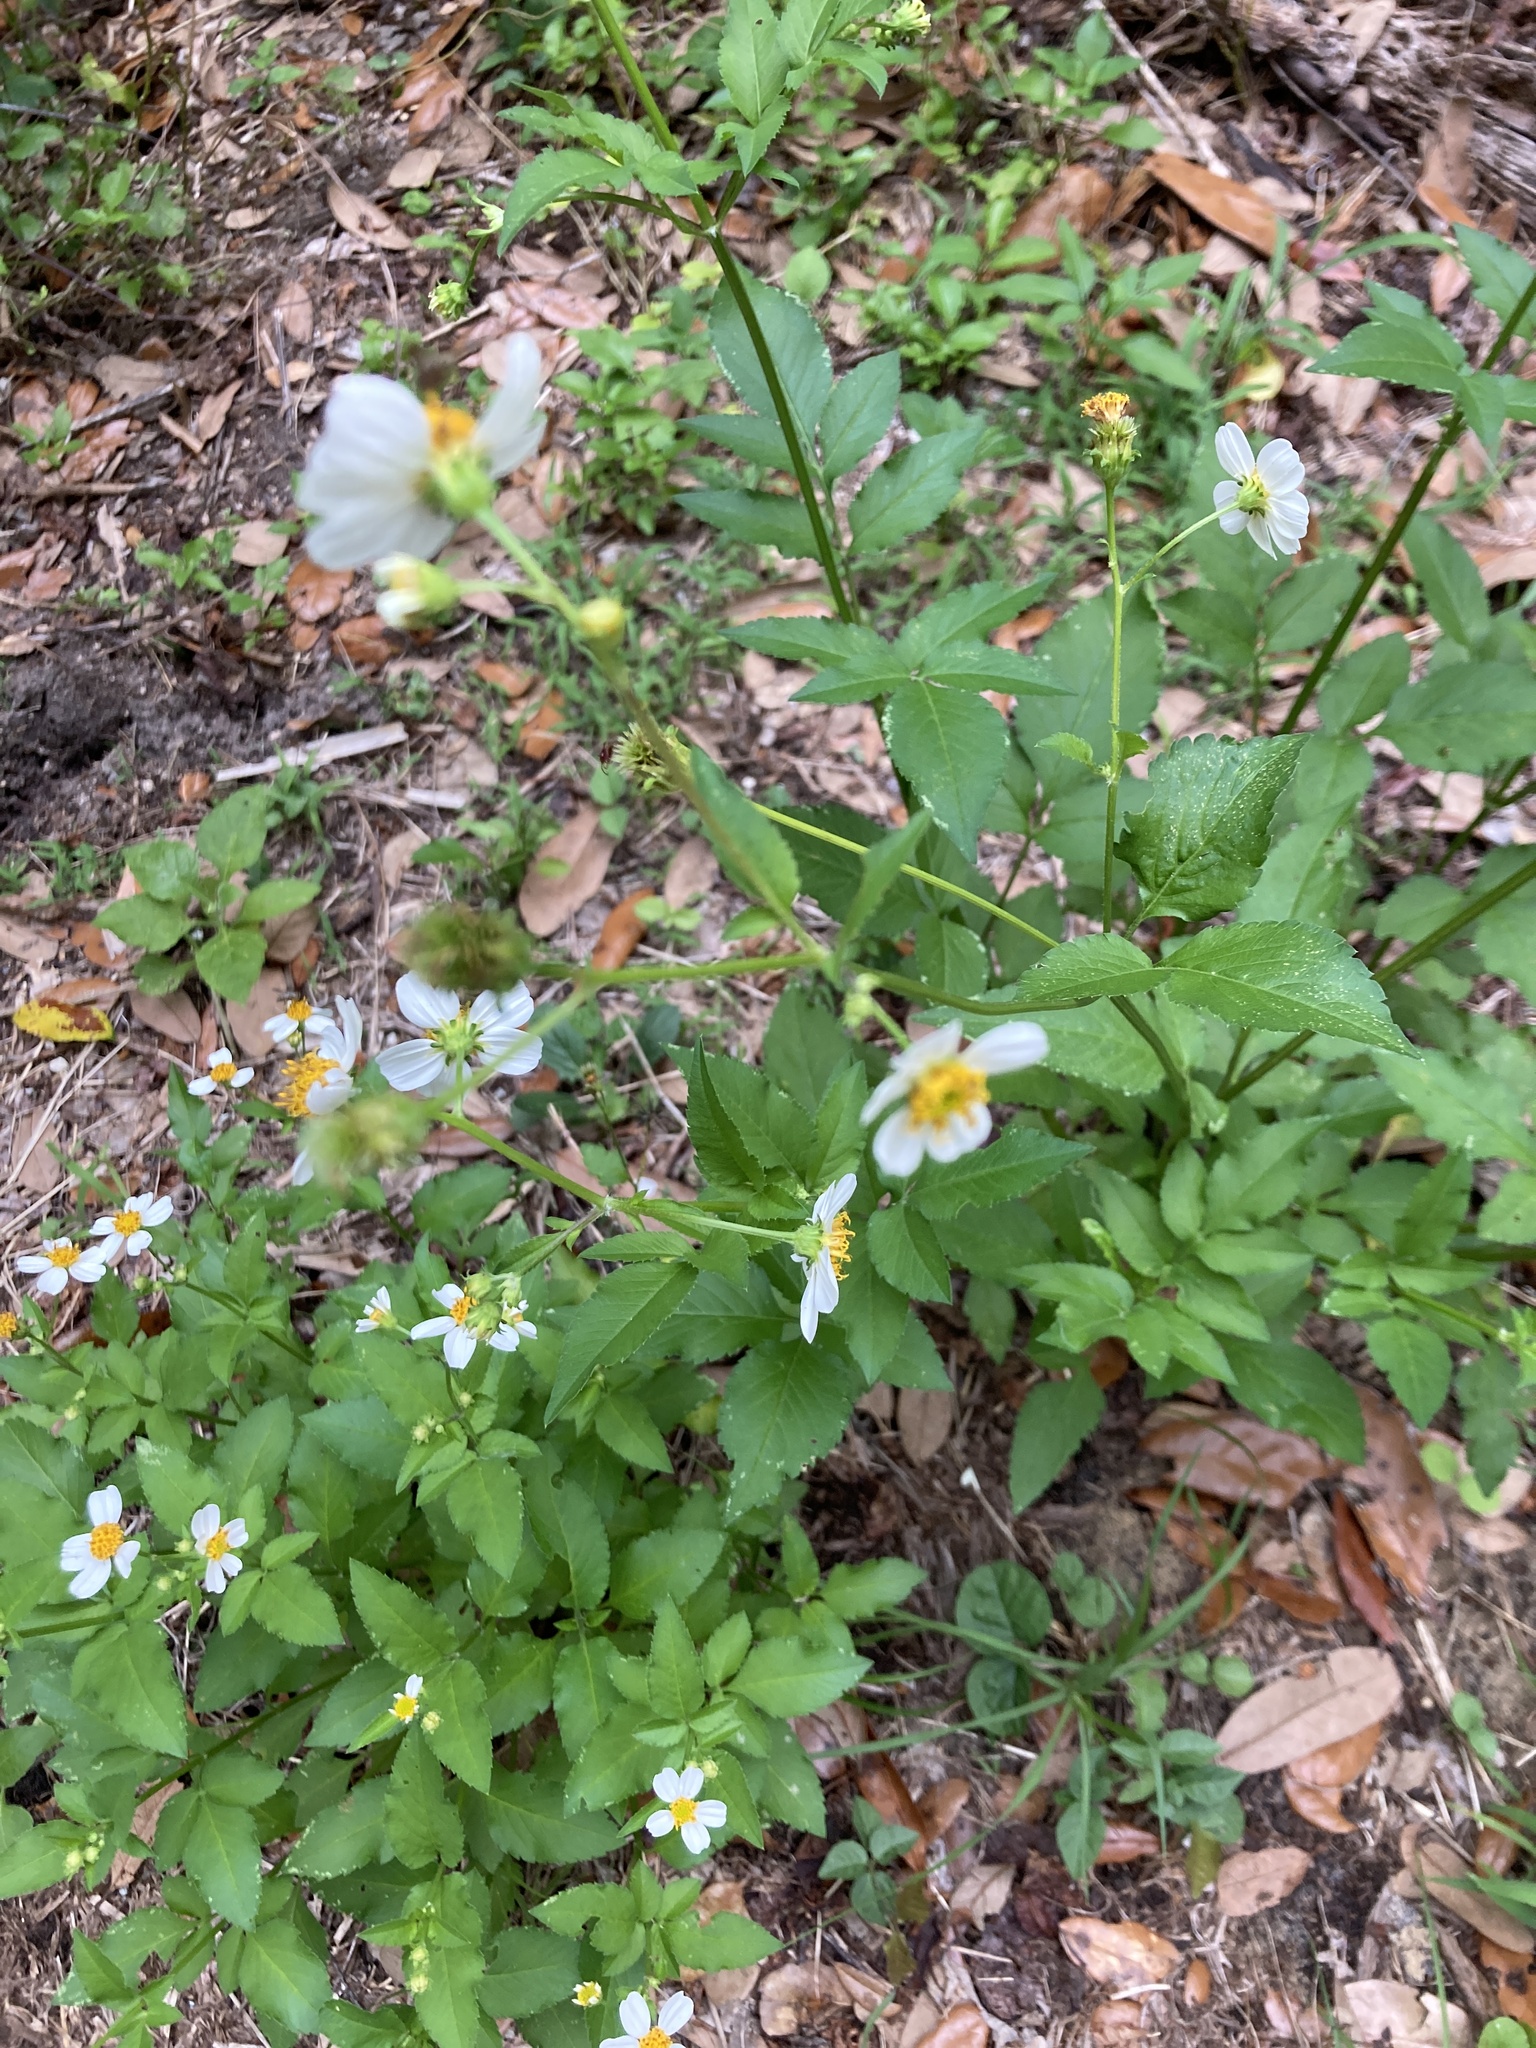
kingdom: Plantae
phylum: Tracheophyta
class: Magnoliopsida
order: Asterales
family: Asteraceae
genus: Bidens
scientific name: Bidens alba
